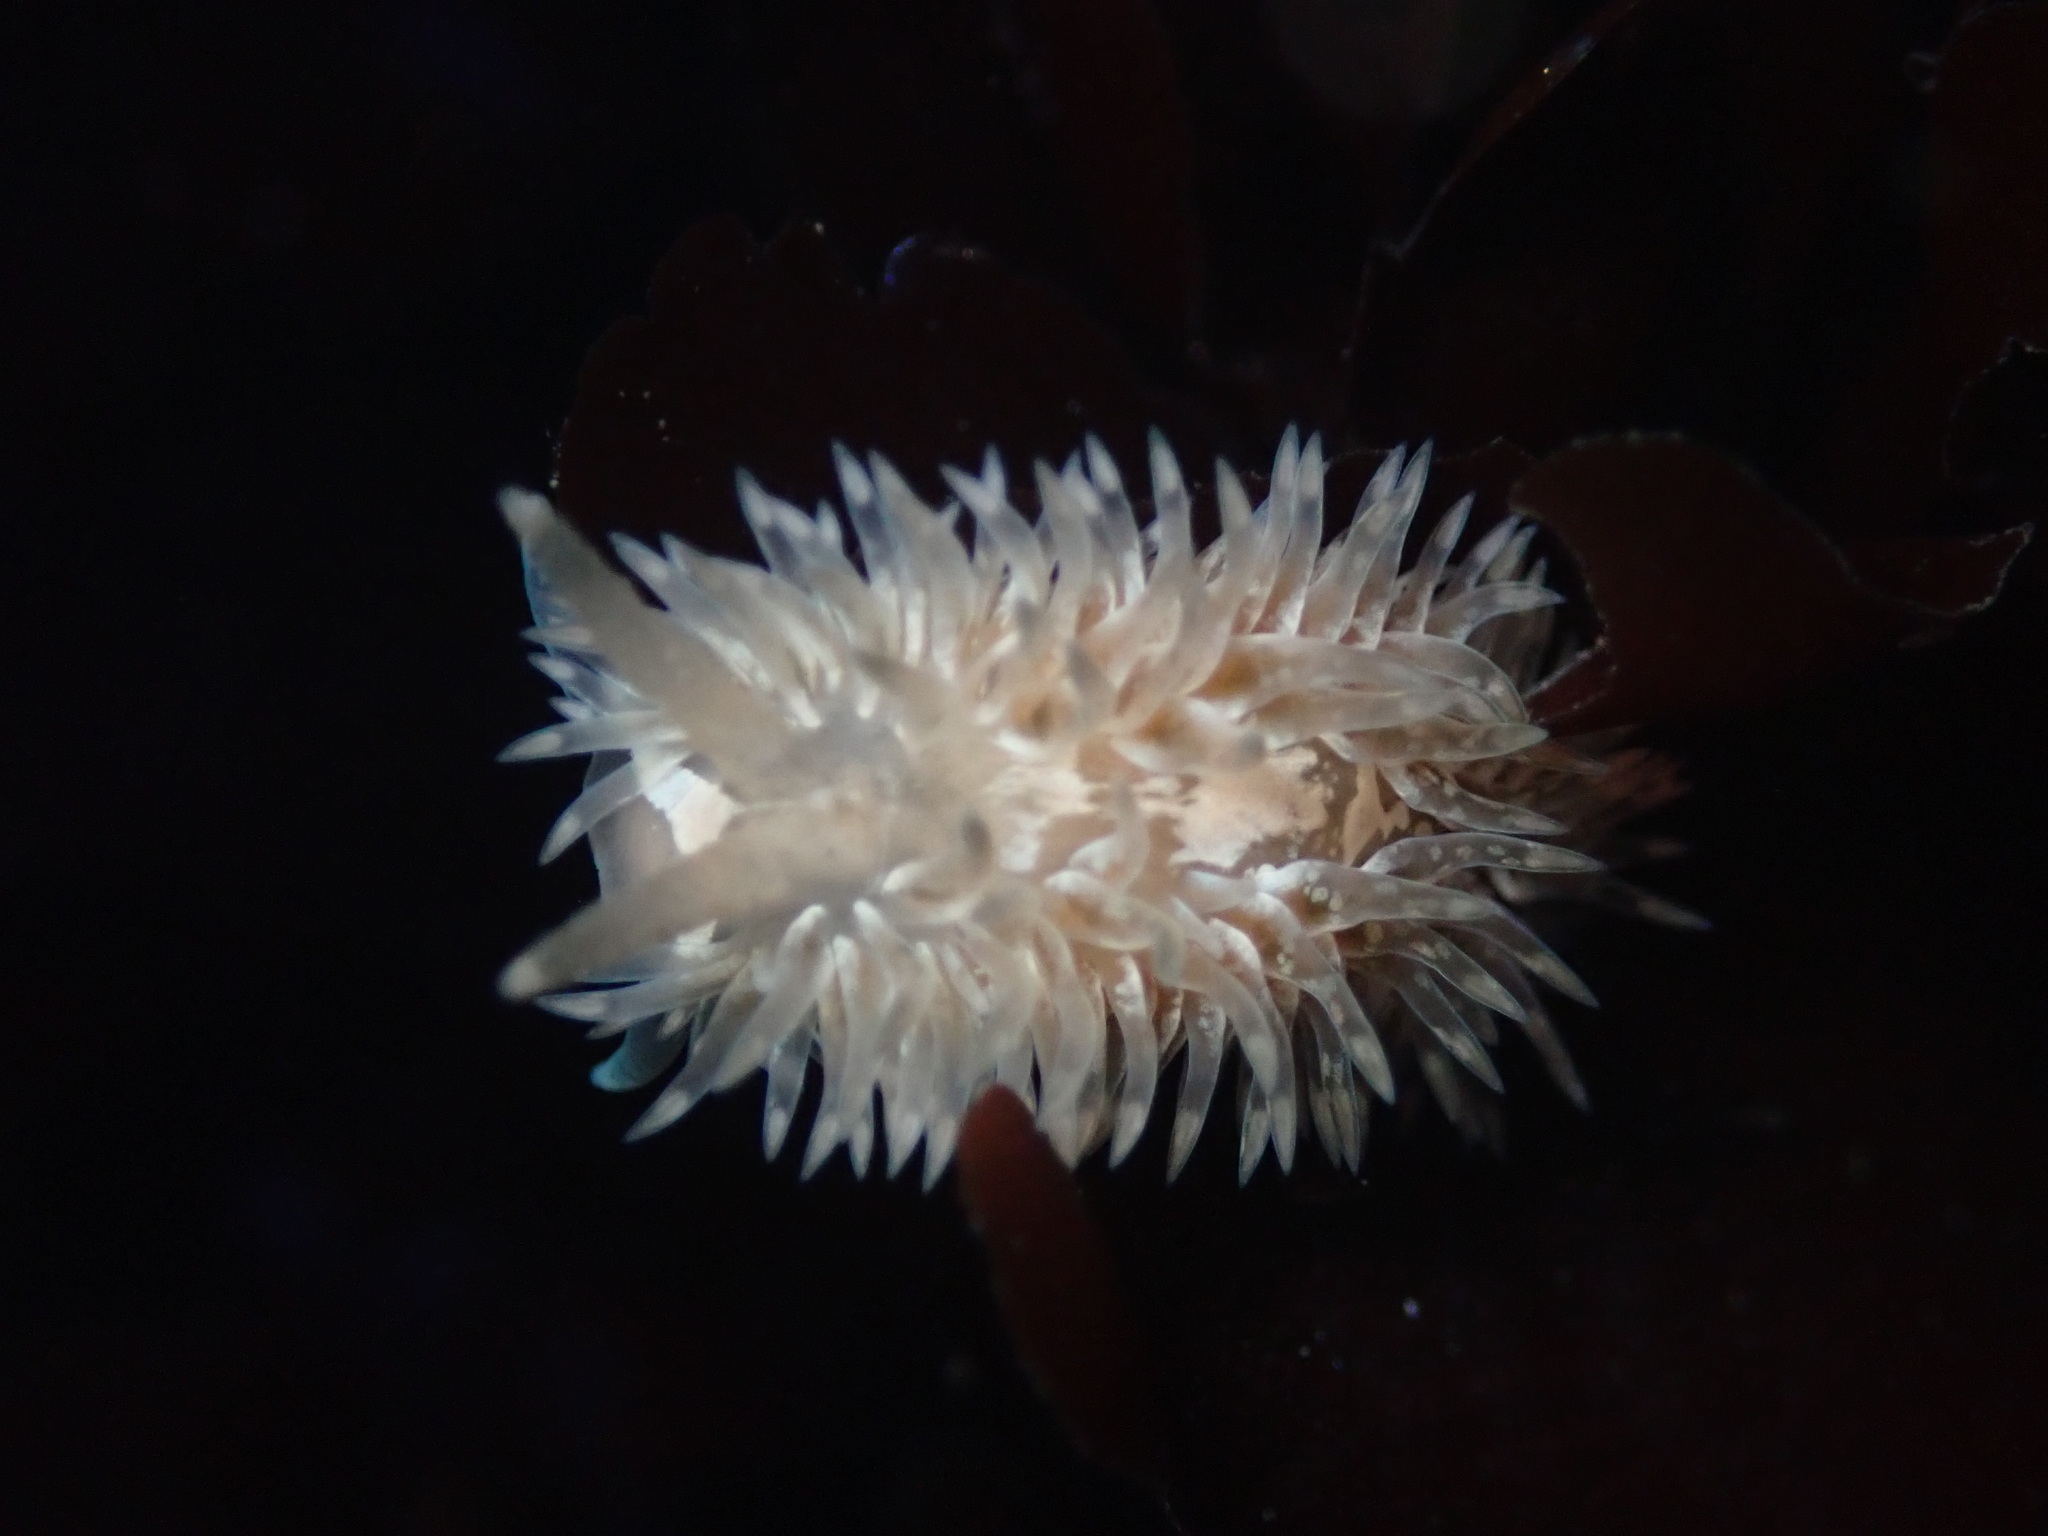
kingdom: Animalia
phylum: Mollusca
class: Gastropoda
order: Nudibranchia
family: Aeolidiidae
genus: Aeolidia
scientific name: Aeolidia loui
